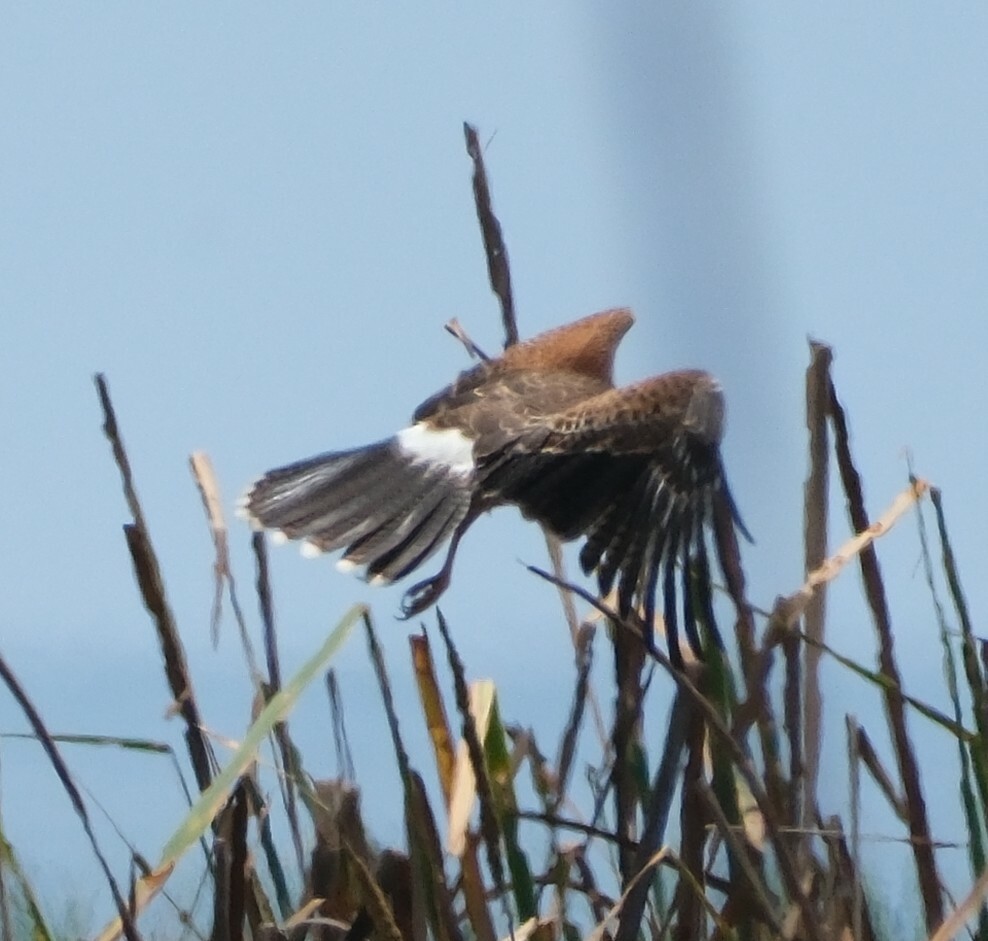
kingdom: Animalia
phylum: Chordata
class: Aves
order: Accipitriformes
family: Accipitridae
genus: Parabuteo
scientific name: Parabuteo unicinctus
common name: Harris's hawk
